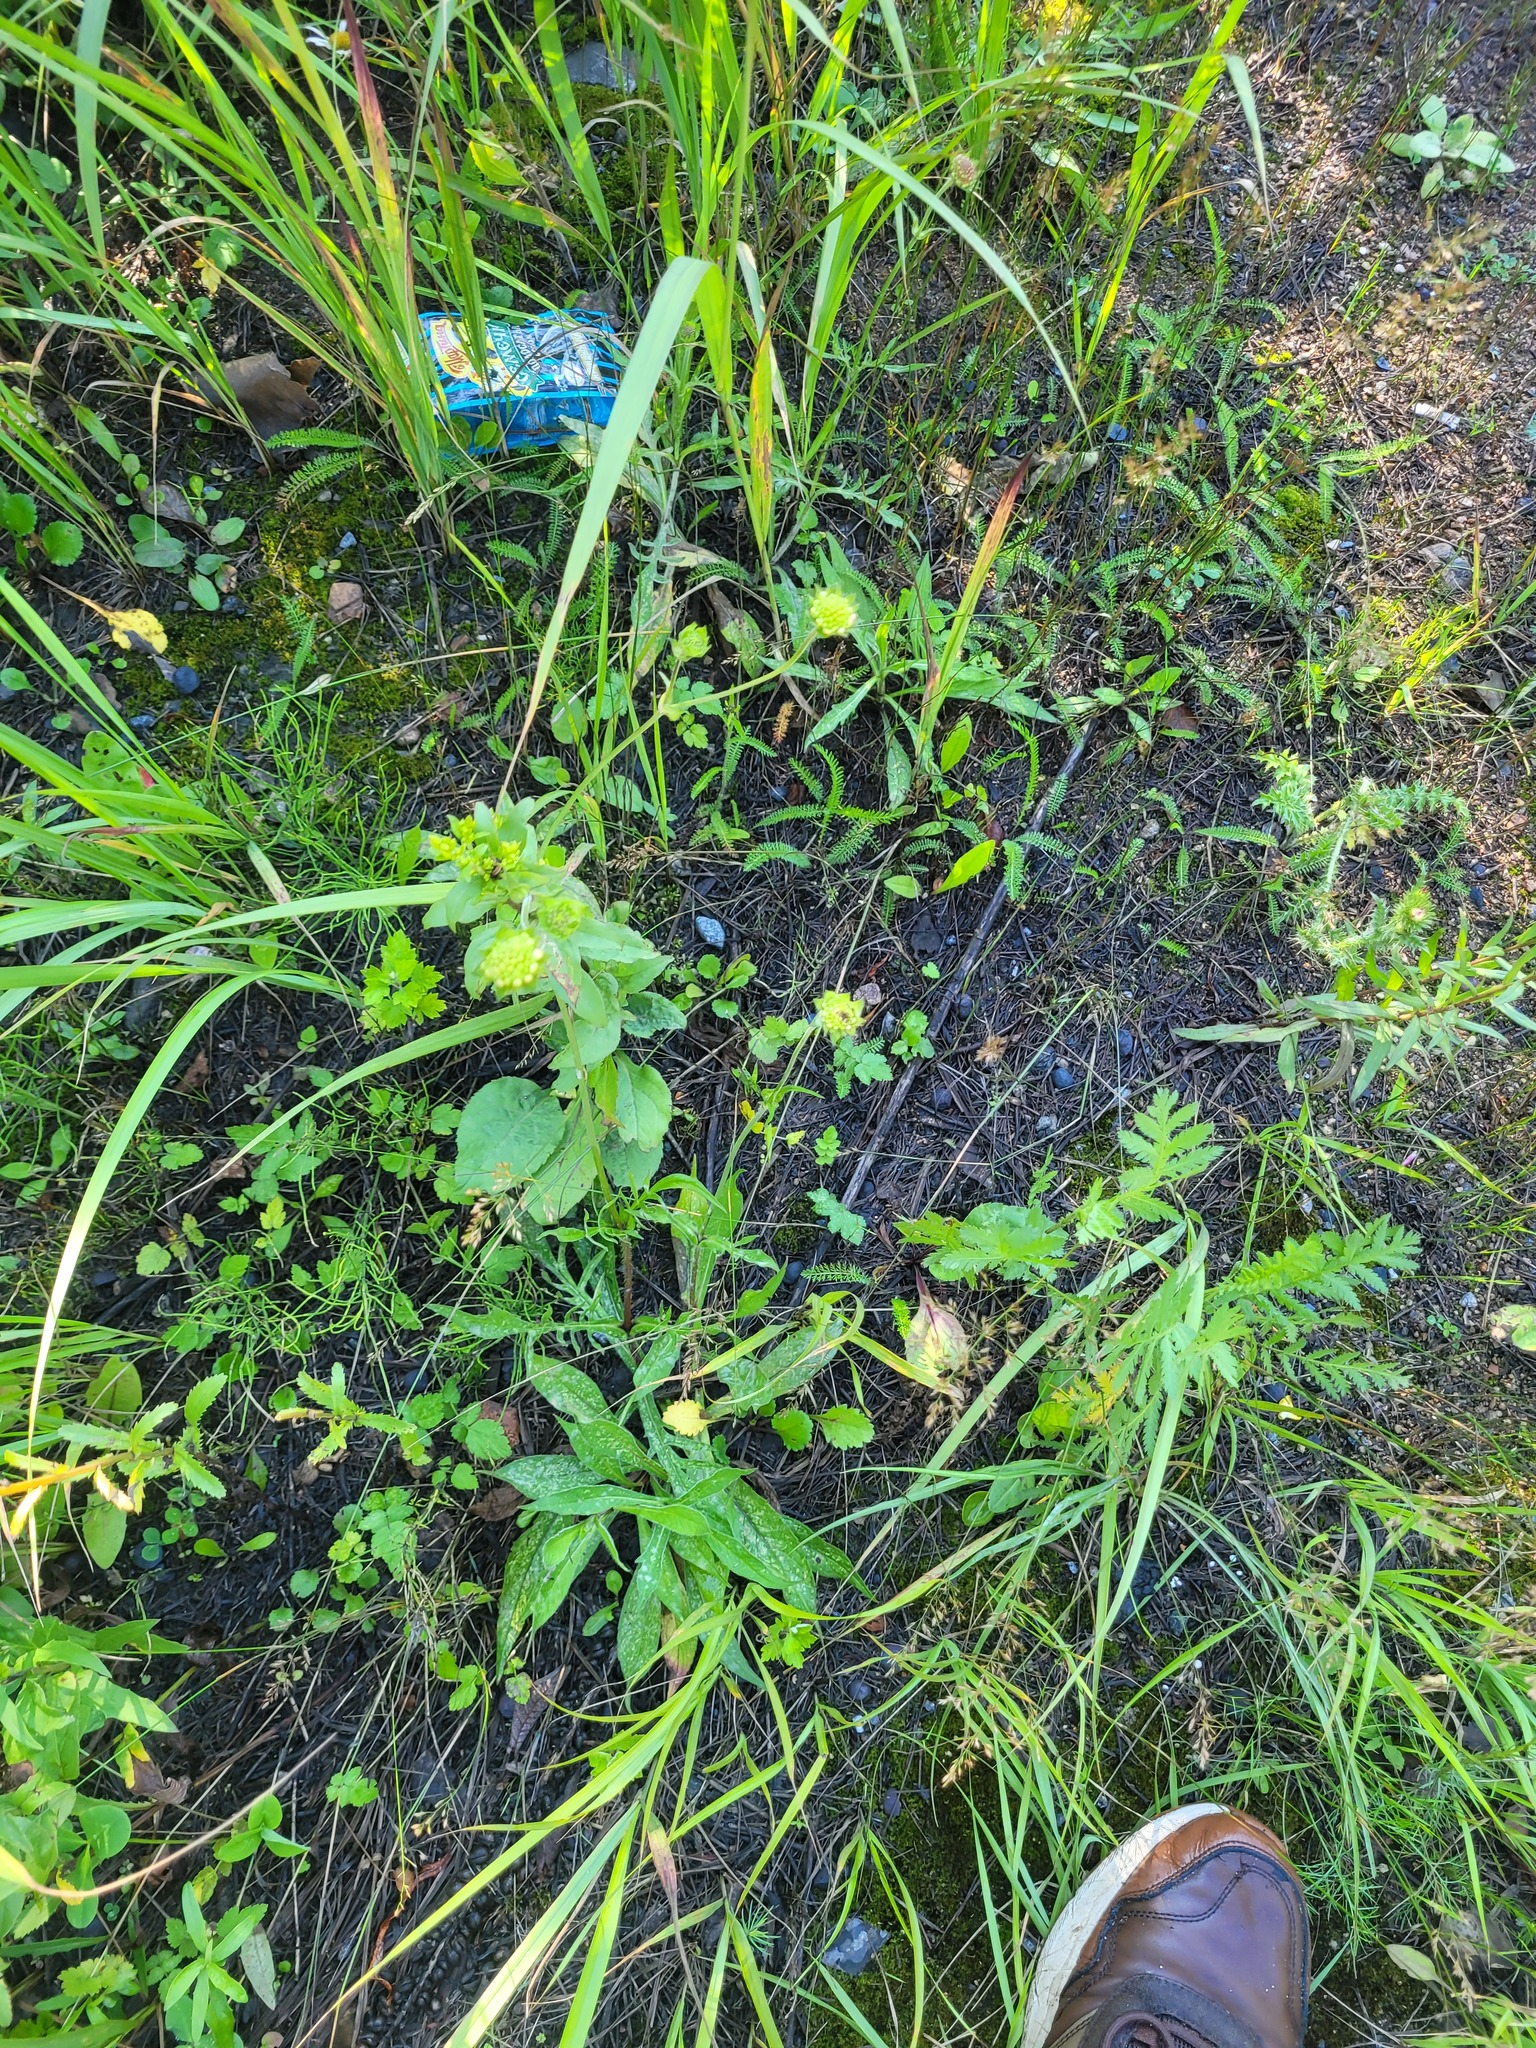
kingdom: Plantae
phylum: Tracheophyta
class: Magnoliopsida
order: Dipsacales
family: Caprifoliaceae
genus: Knautia
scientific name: Knautia arvensis
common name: Field scabiosa
